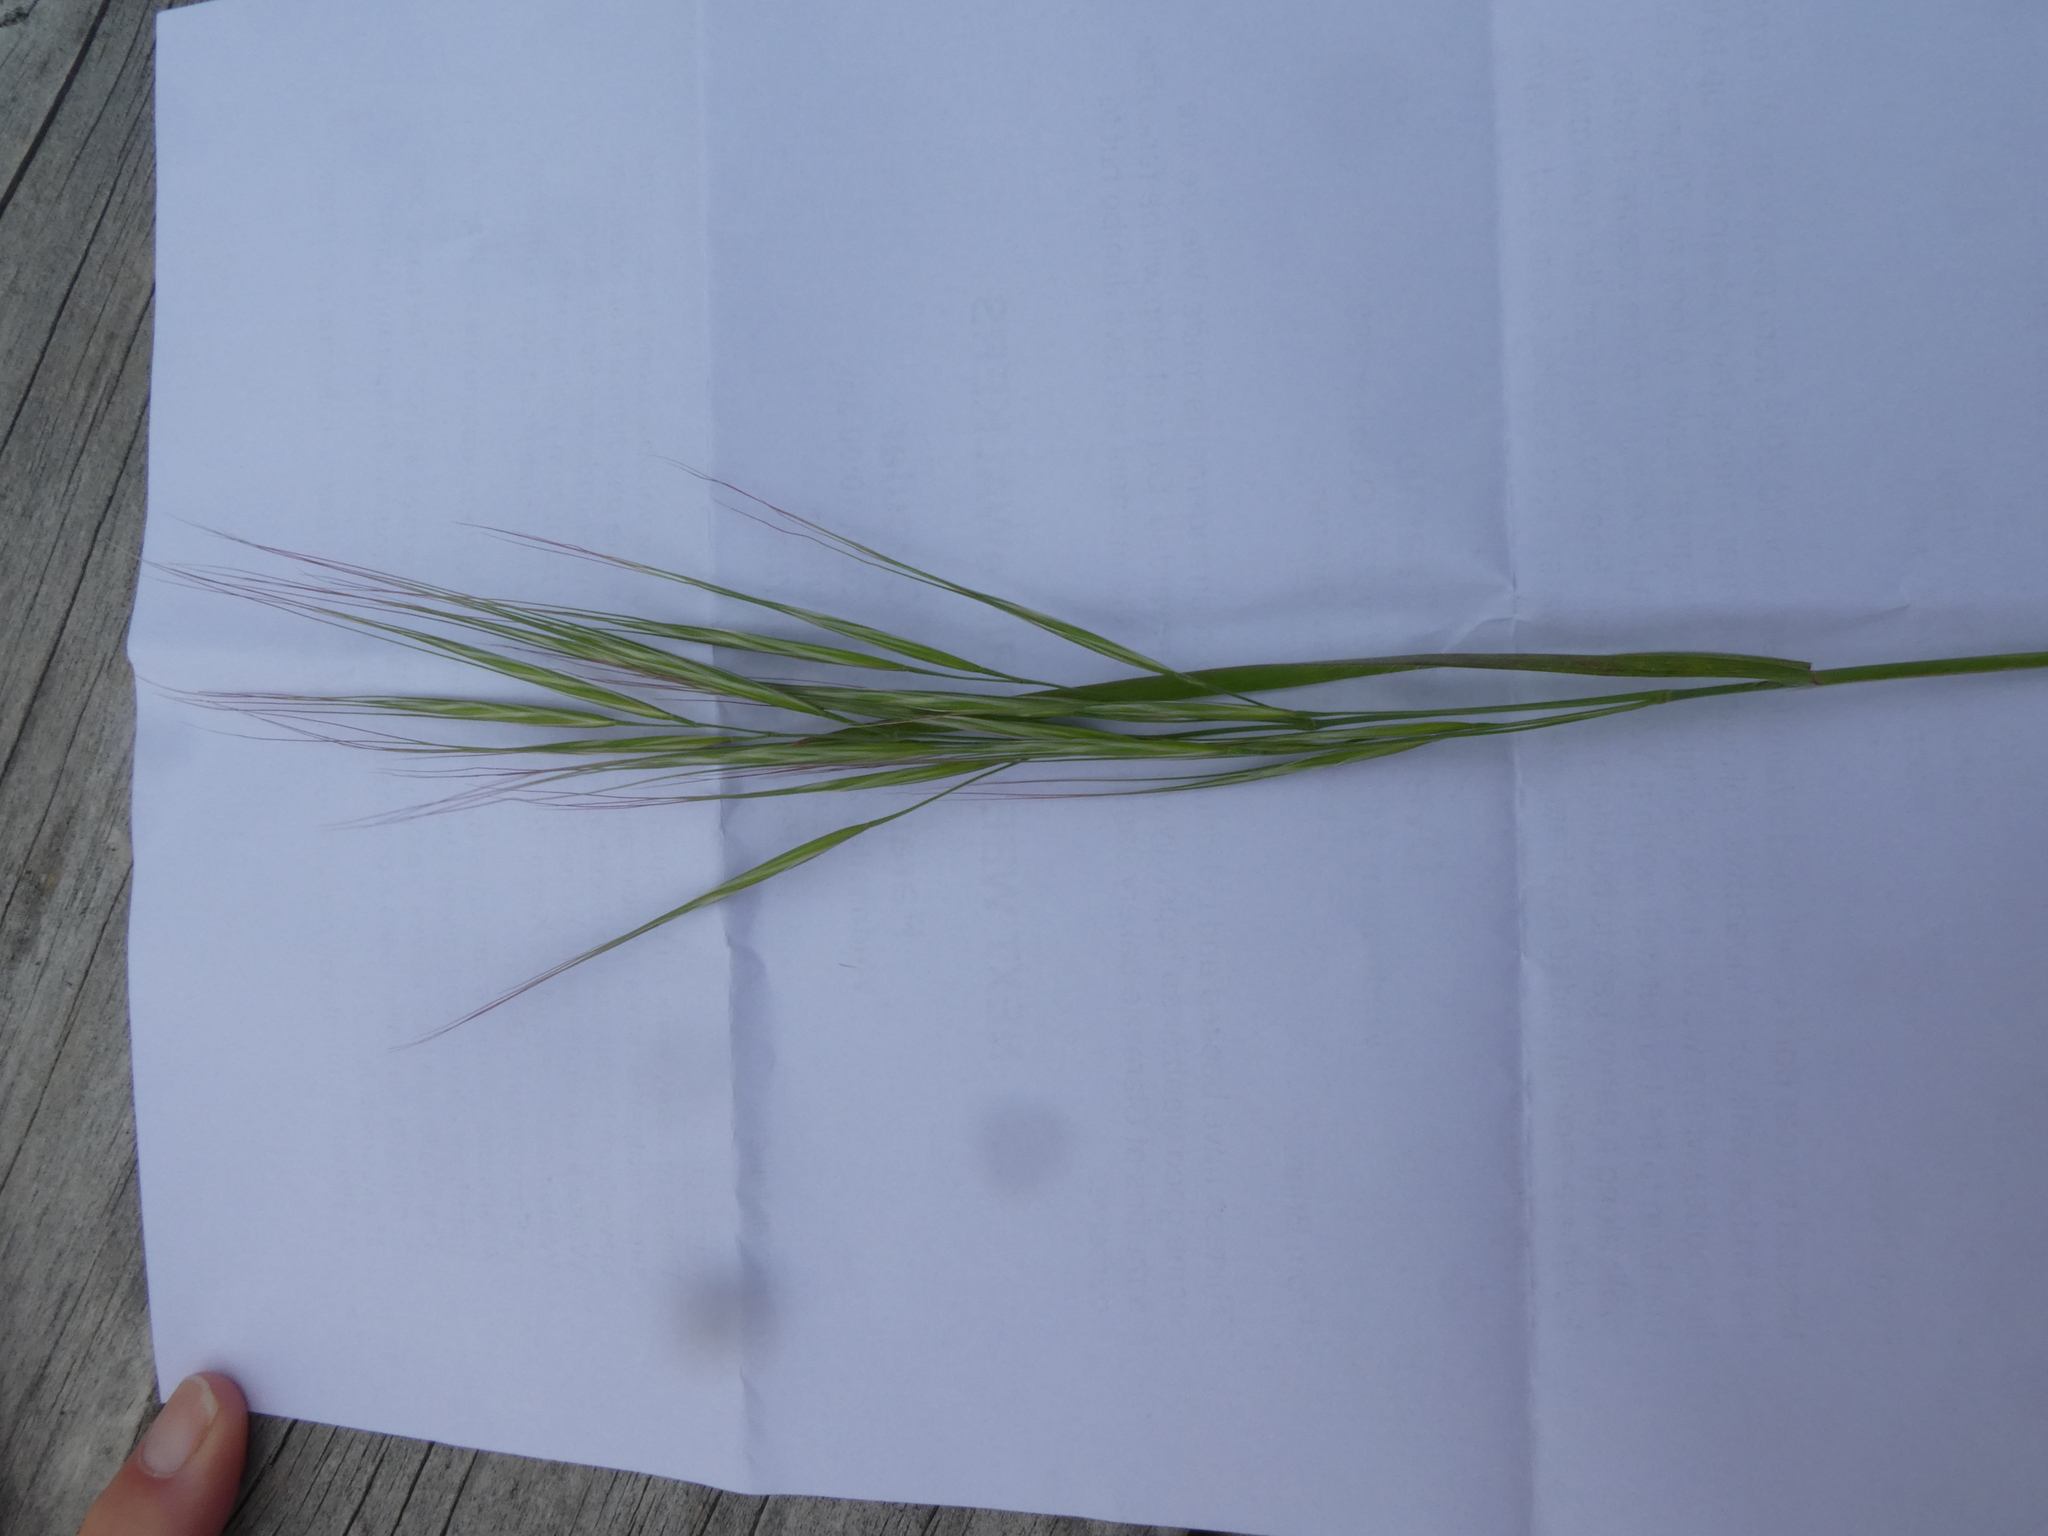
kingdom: Plantae
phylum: Tracheophyta
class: Liliopsida
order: Poales
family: Poaceae
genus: Bromus
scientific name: Bromus diandrus
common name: Ripgut brome
